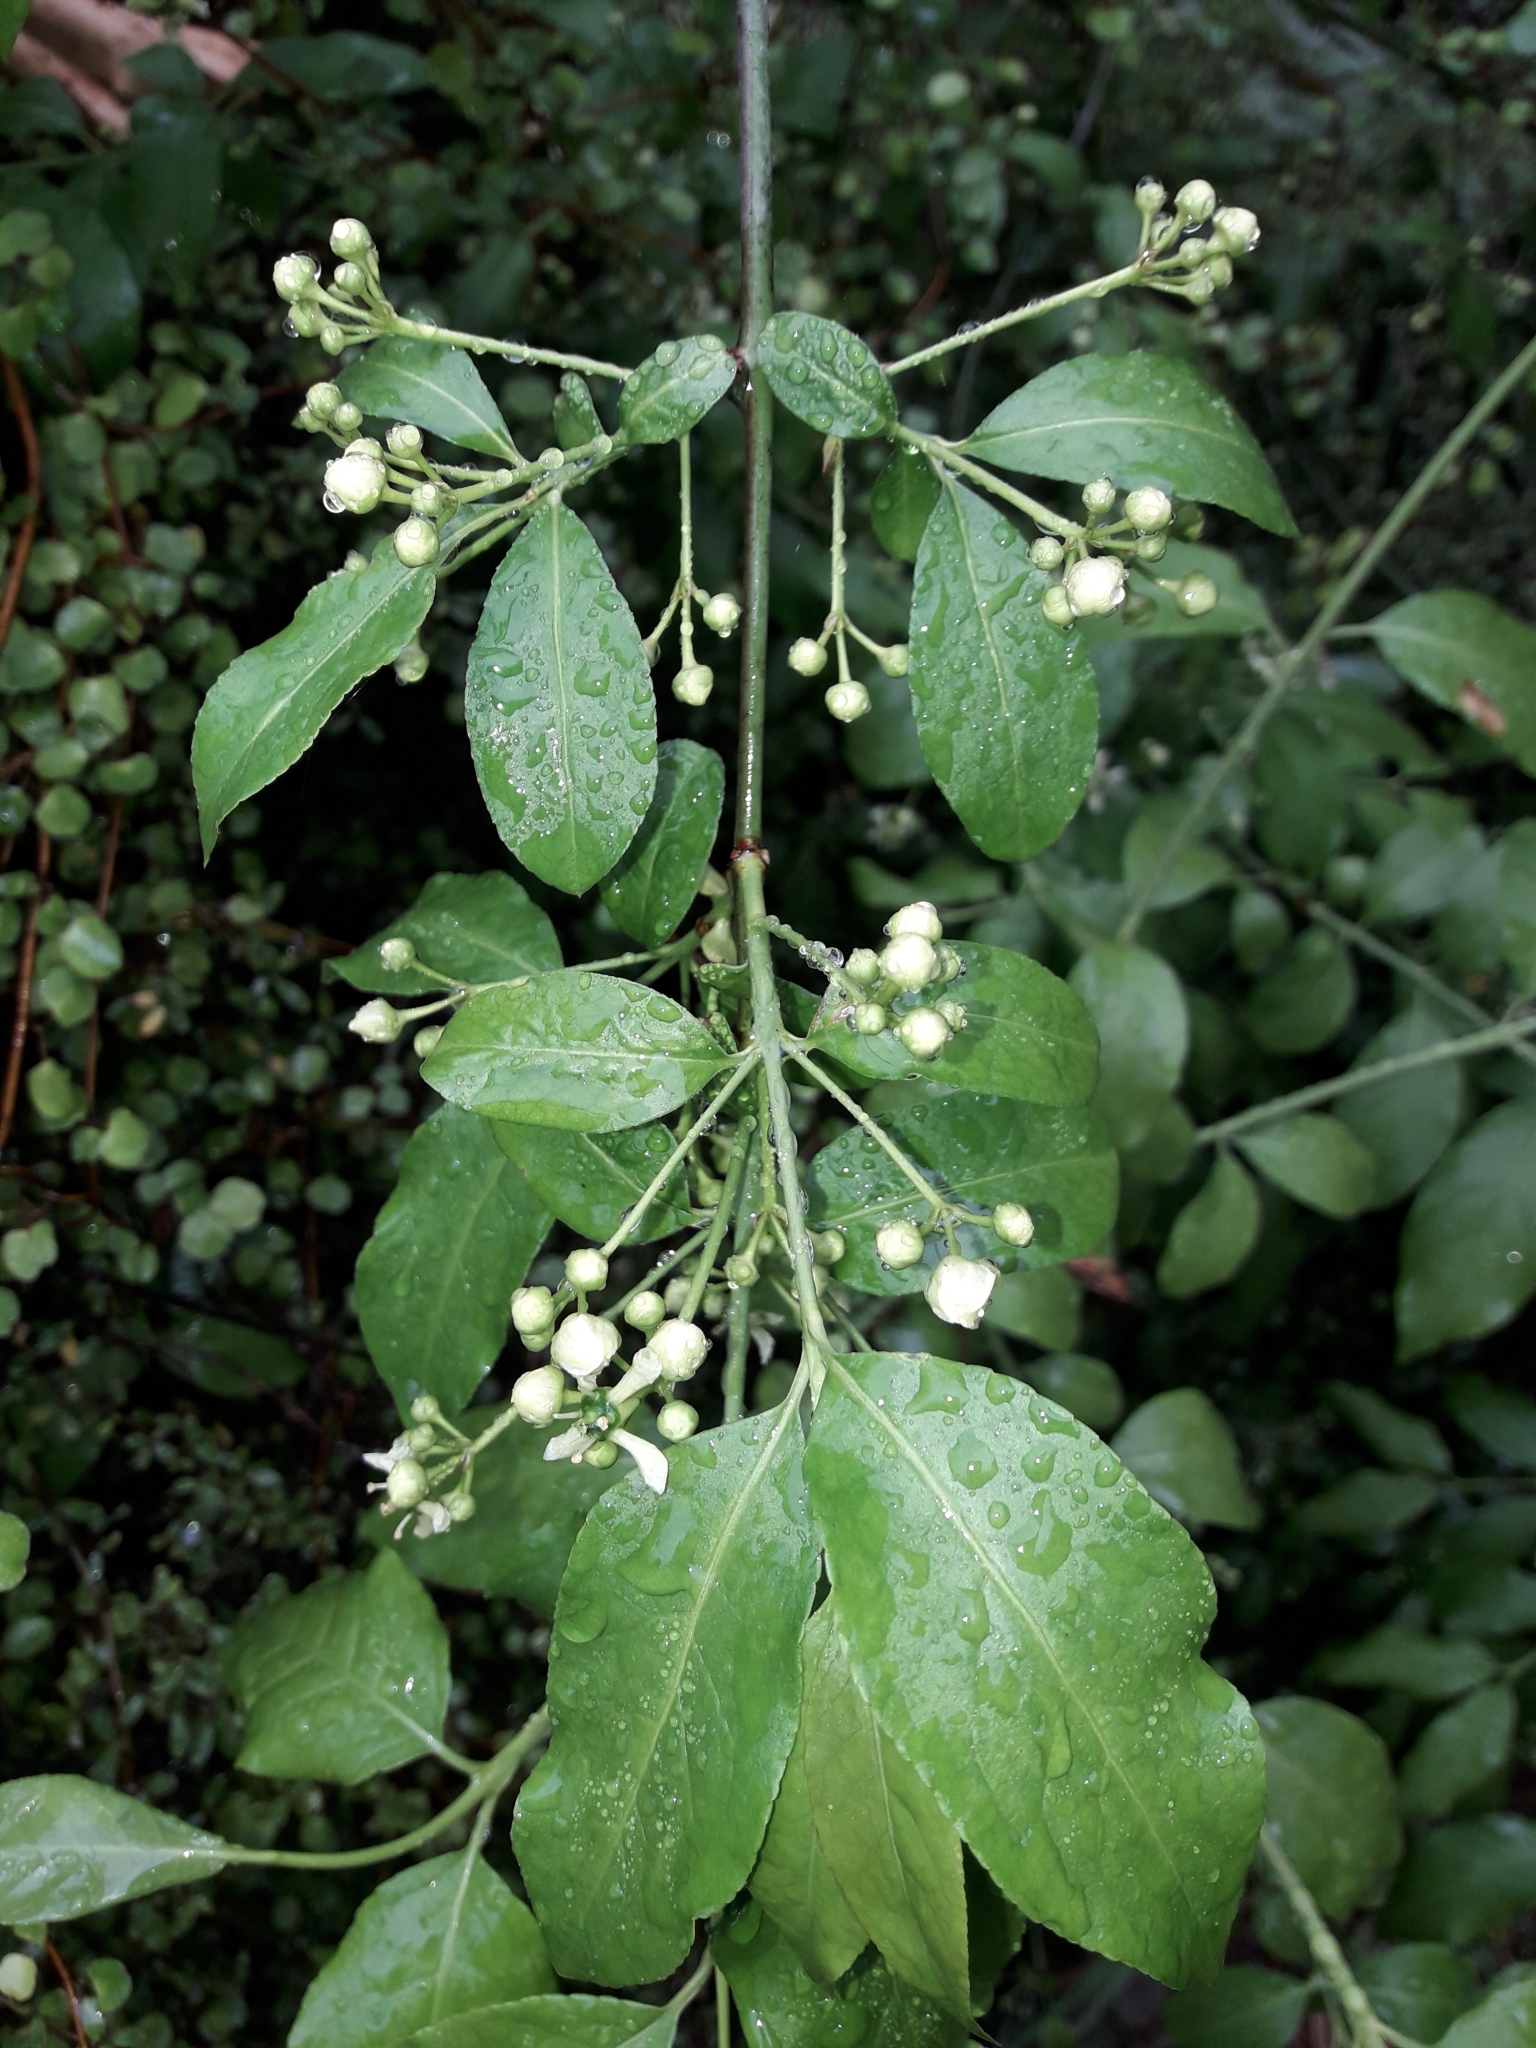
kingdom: Plantae
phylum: Tracheophyta
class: Magnoliopsida
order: Celastrales
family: Celastraceae
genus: Euonymus
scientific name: Euonymus europaeus
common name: Spindle
